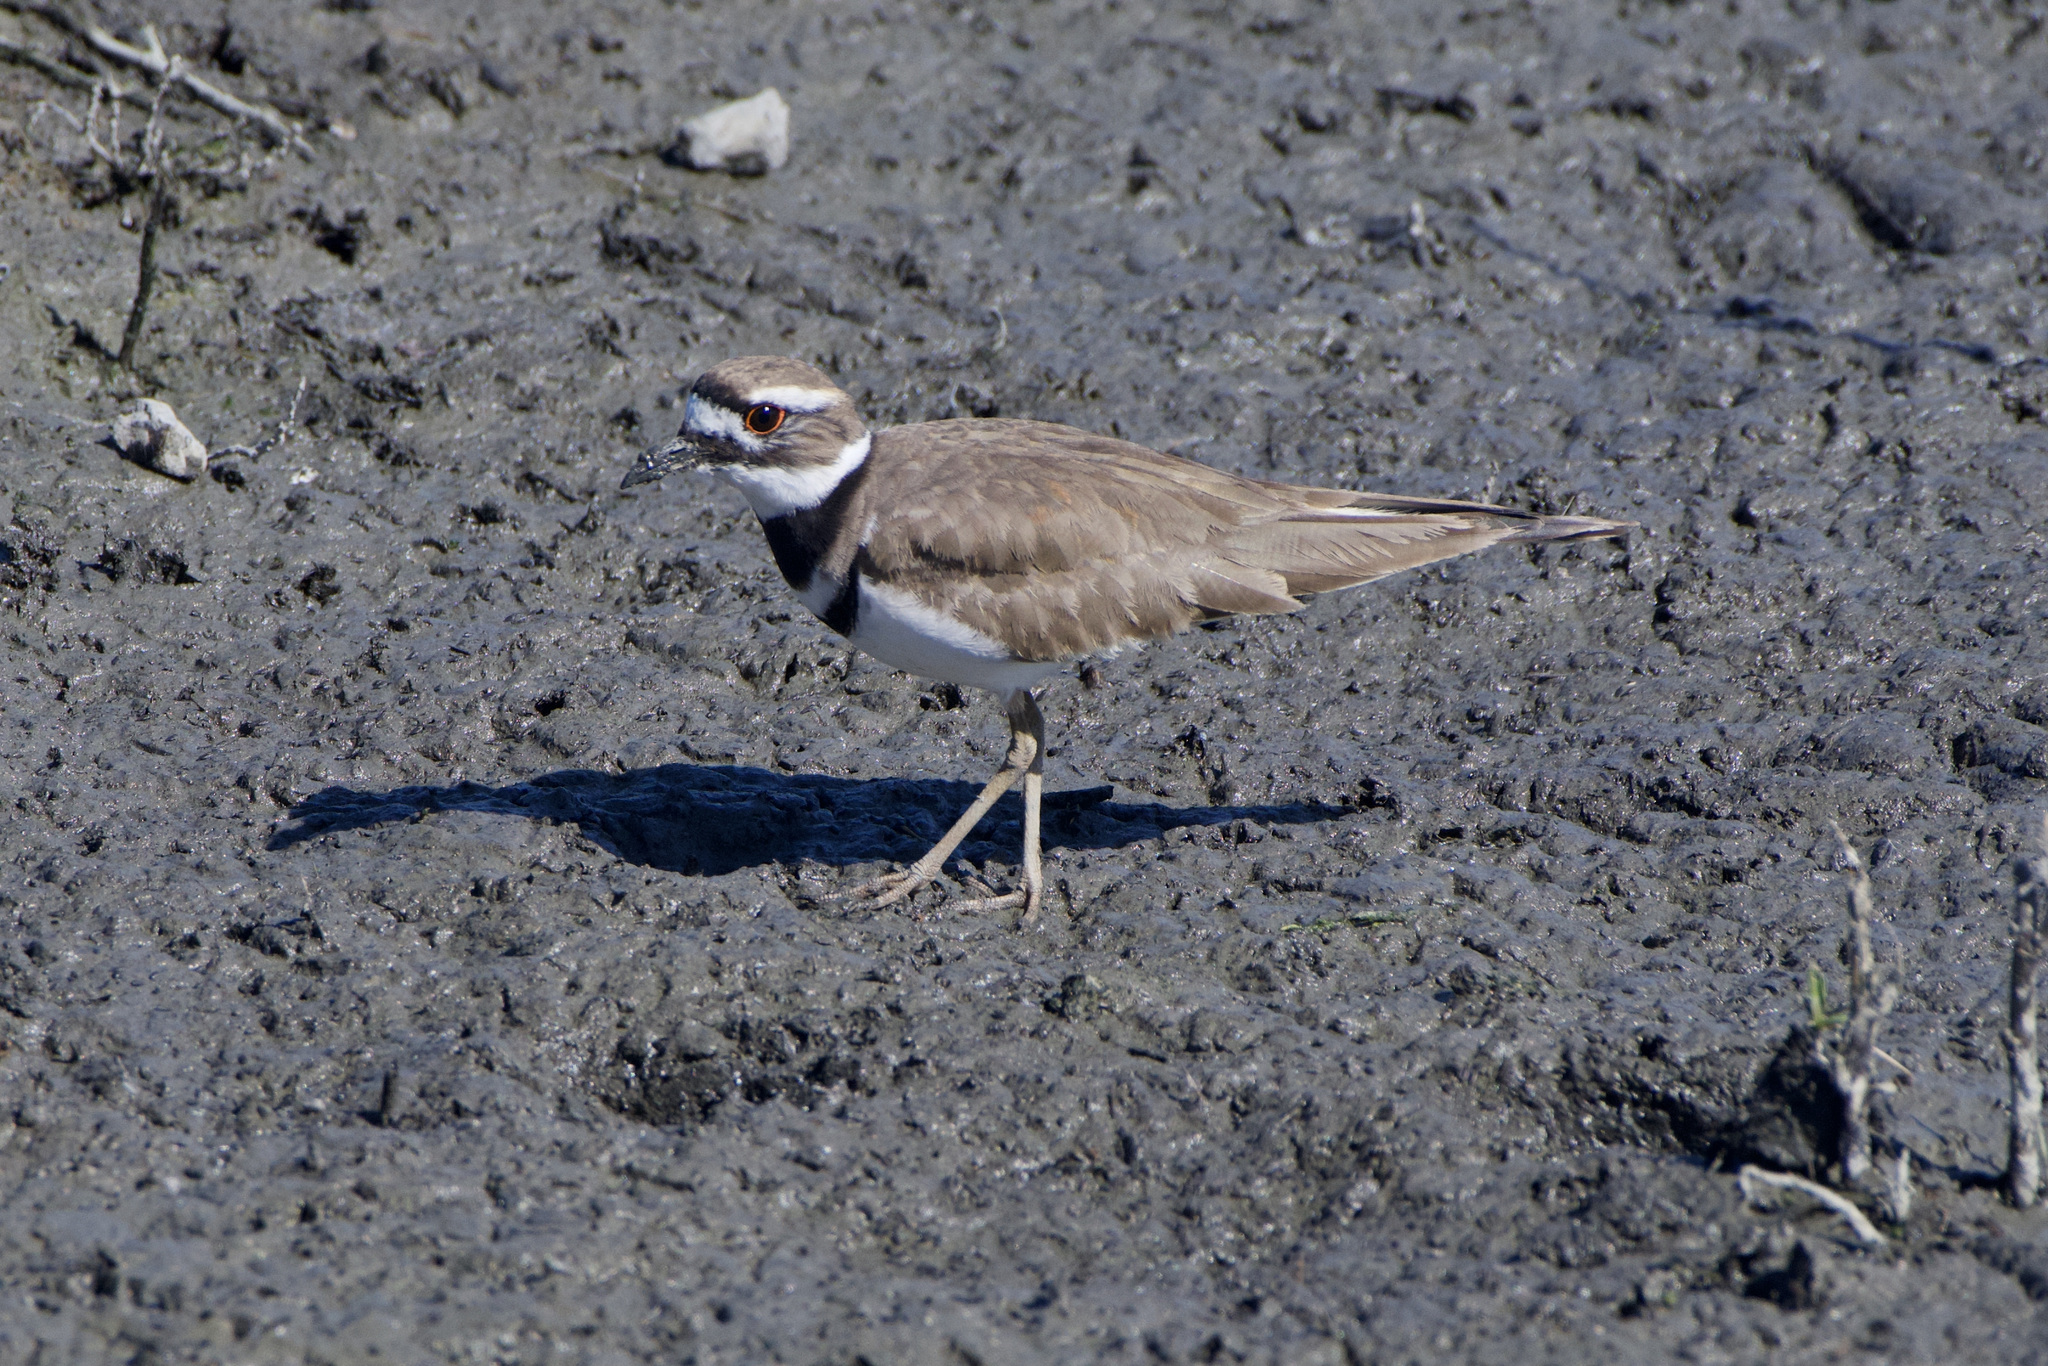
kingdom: Animalia
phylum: Chordata
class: Aves
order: Charadriiformes
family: Charadriidae
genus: Charadrius
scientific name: Charadrius vociferus
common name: Killdeer
